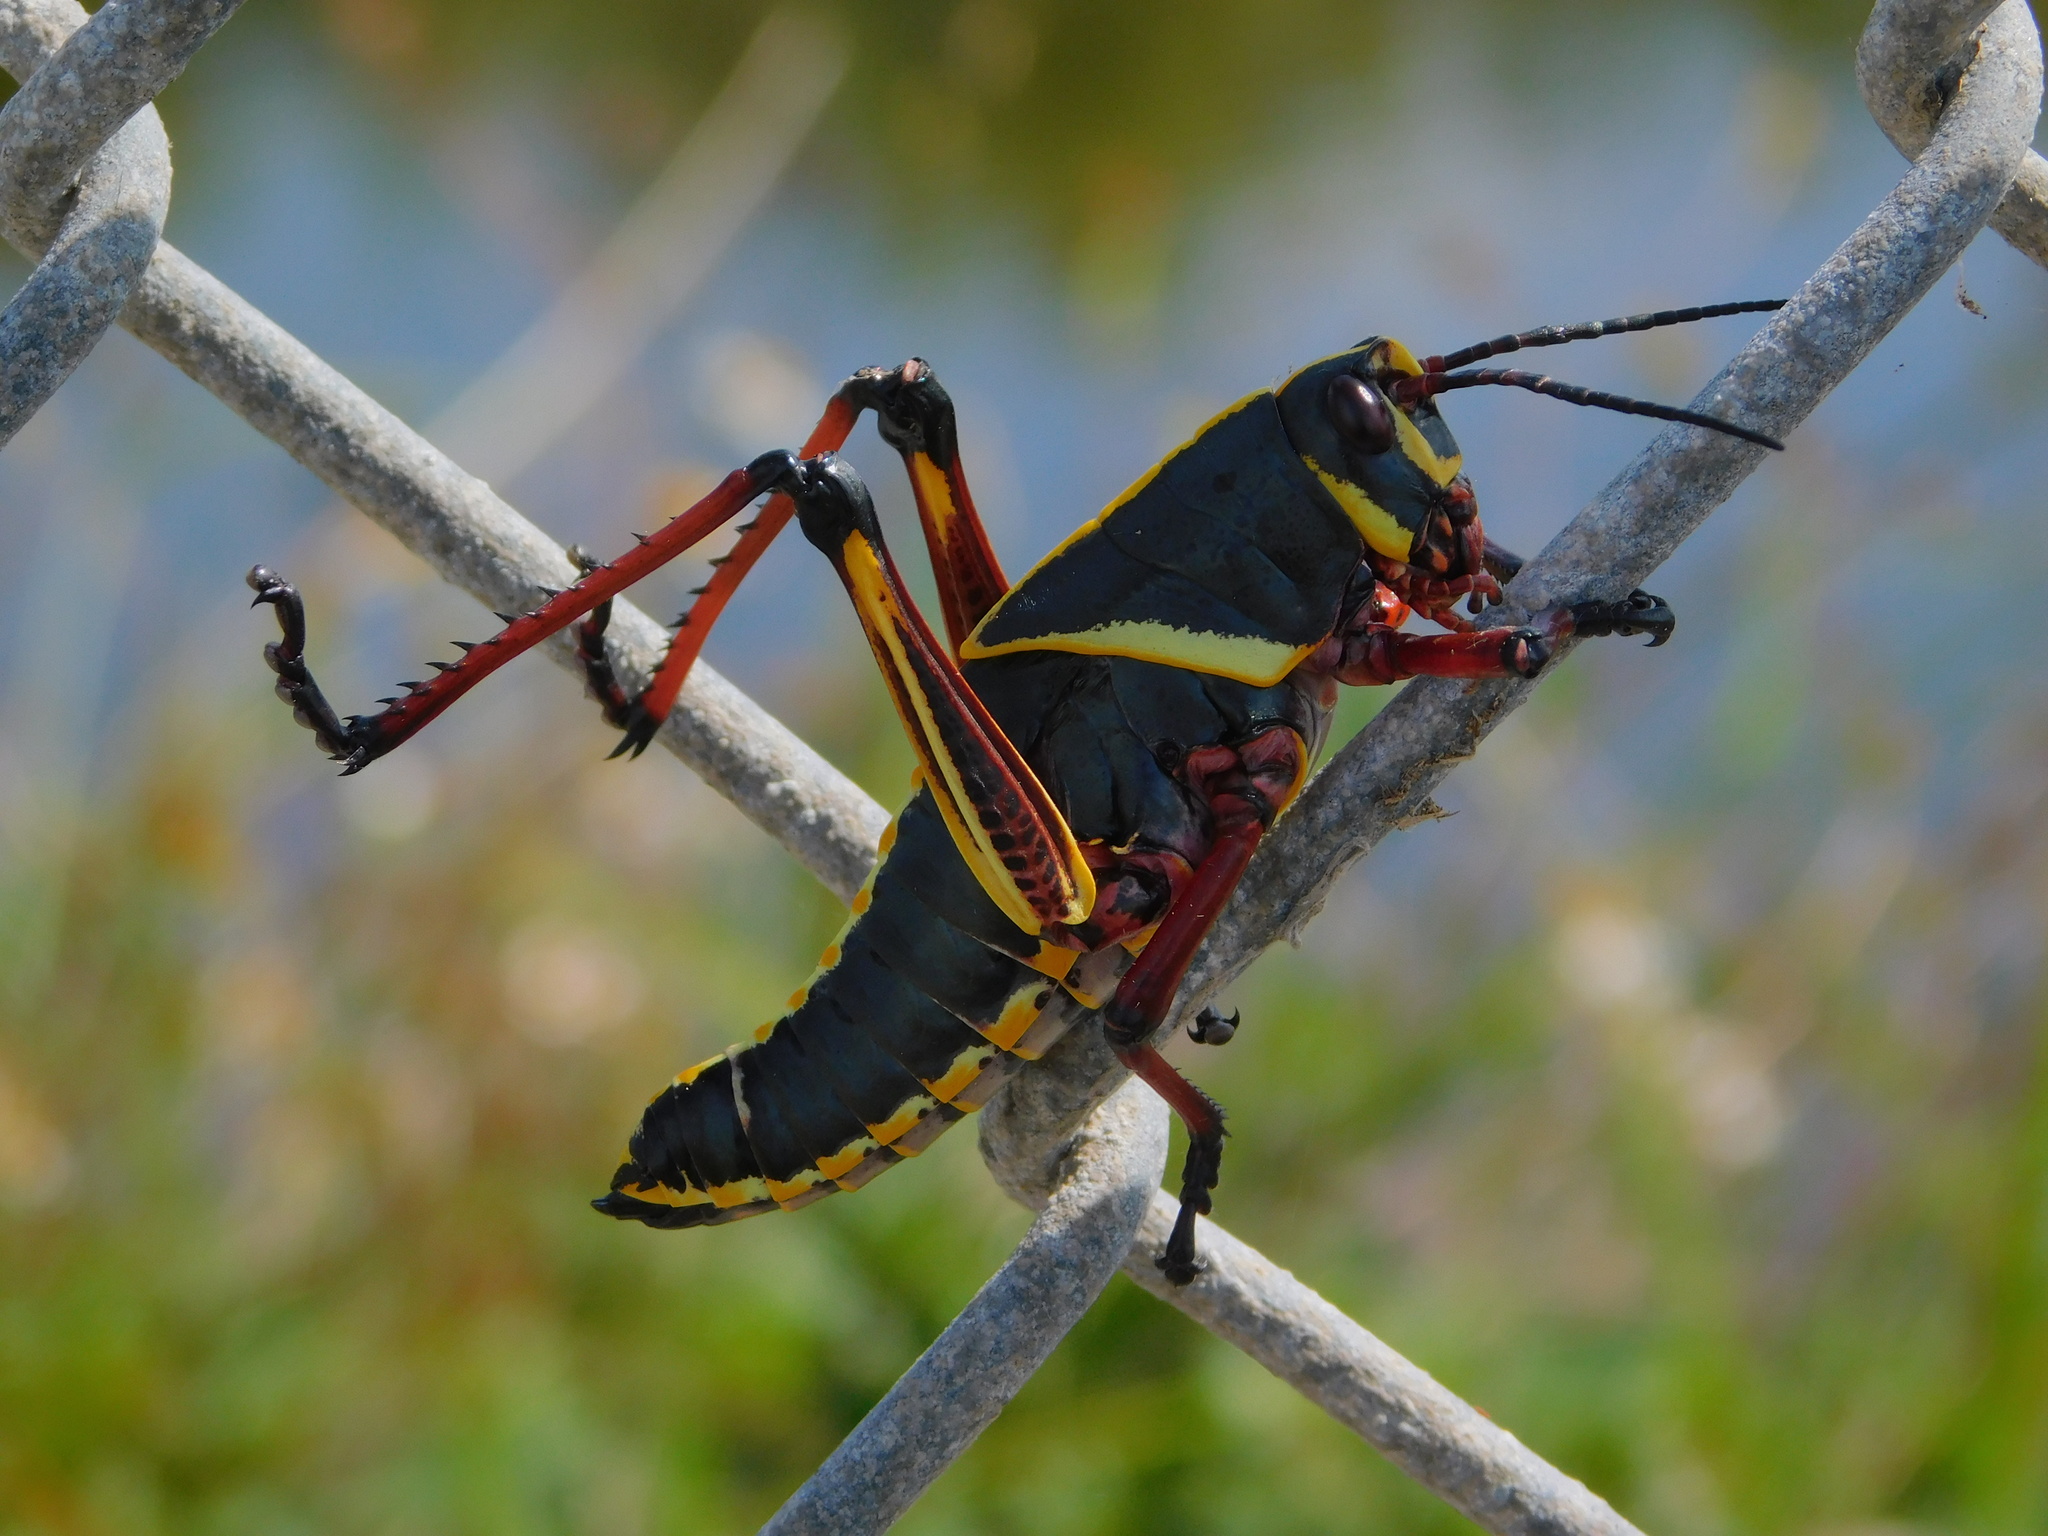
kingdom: Animalia
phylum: Arthropoda
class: Insecta
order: Orthoptera
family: Romaleidae
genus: Romalea
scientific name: Romalea microptera
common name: Eastern lubber grasshopper
